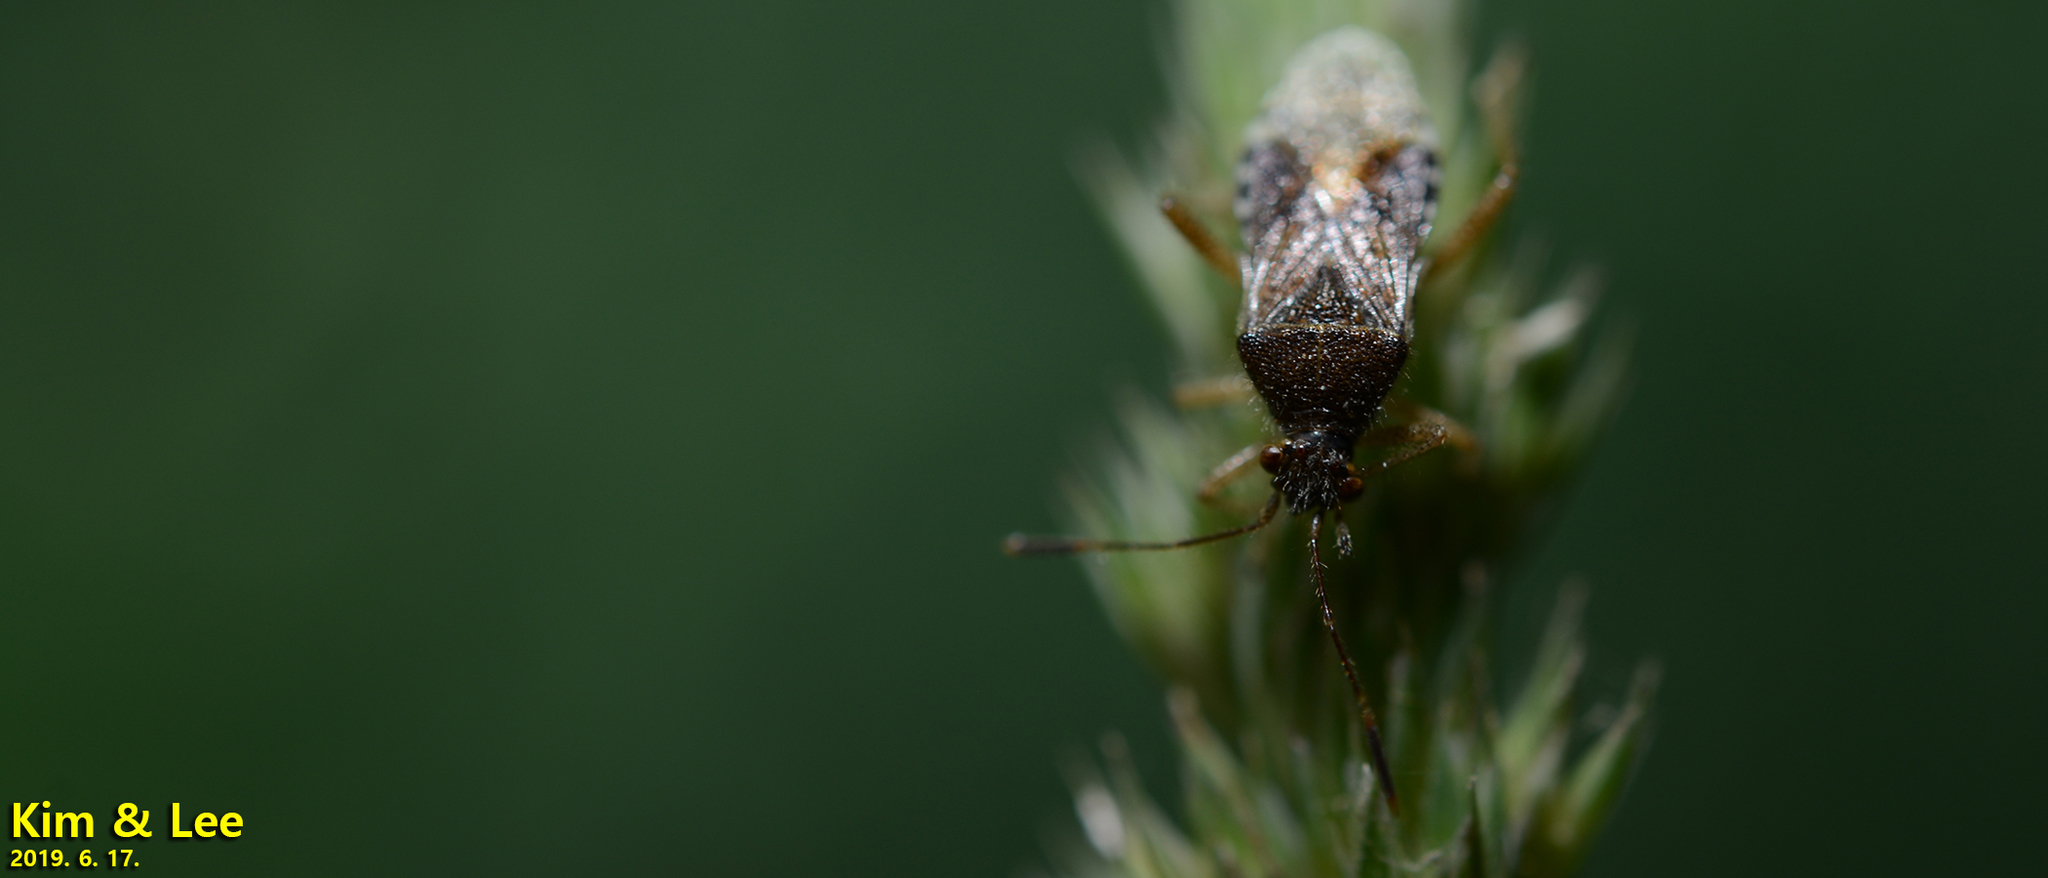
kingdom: Animalia
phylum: Arthropoda
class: Insecta
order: Hemiptera
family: Miridae
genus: Stenotus
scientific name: Stenotus binotatus
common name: Plant bug
